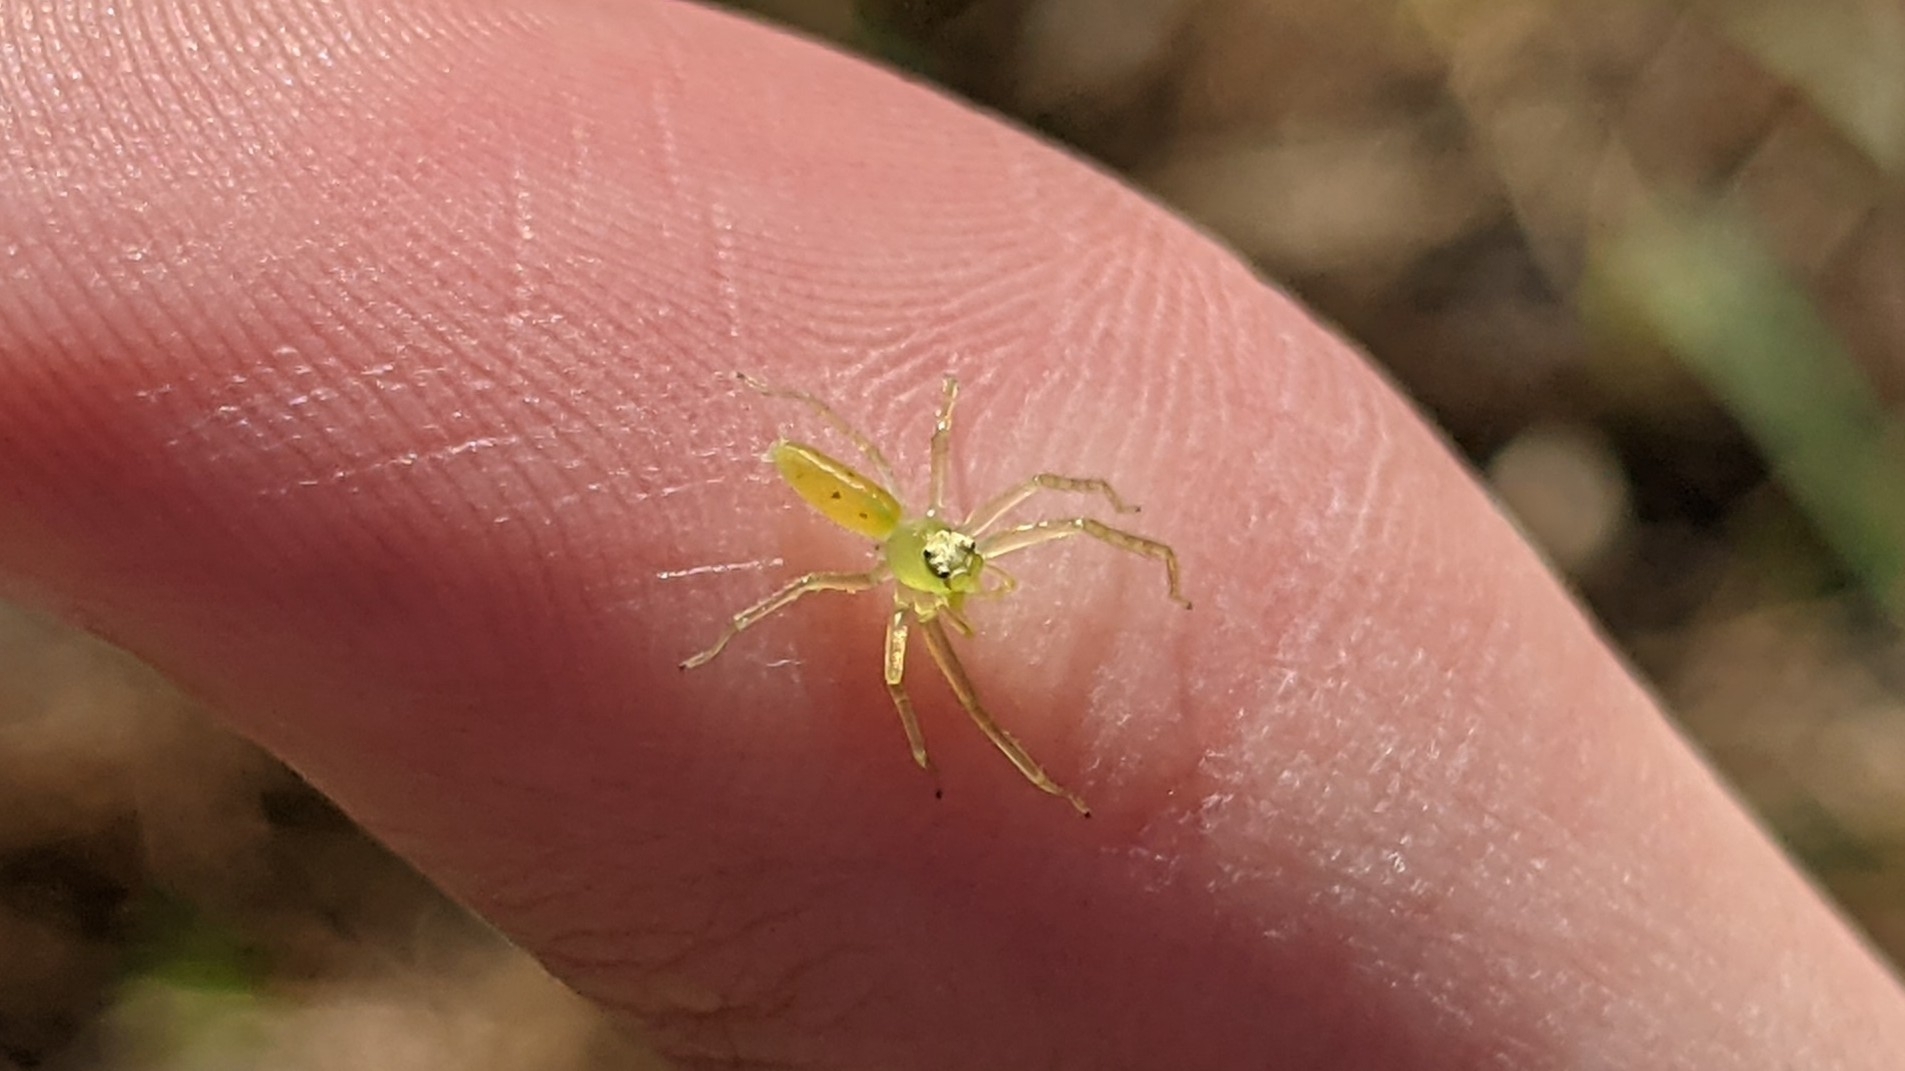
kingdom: Animalia
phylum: Arthropoda
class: Arachnida
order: Araneae
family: Salticidae
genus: Lyssomanes
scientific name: Lyssomanes viridis
